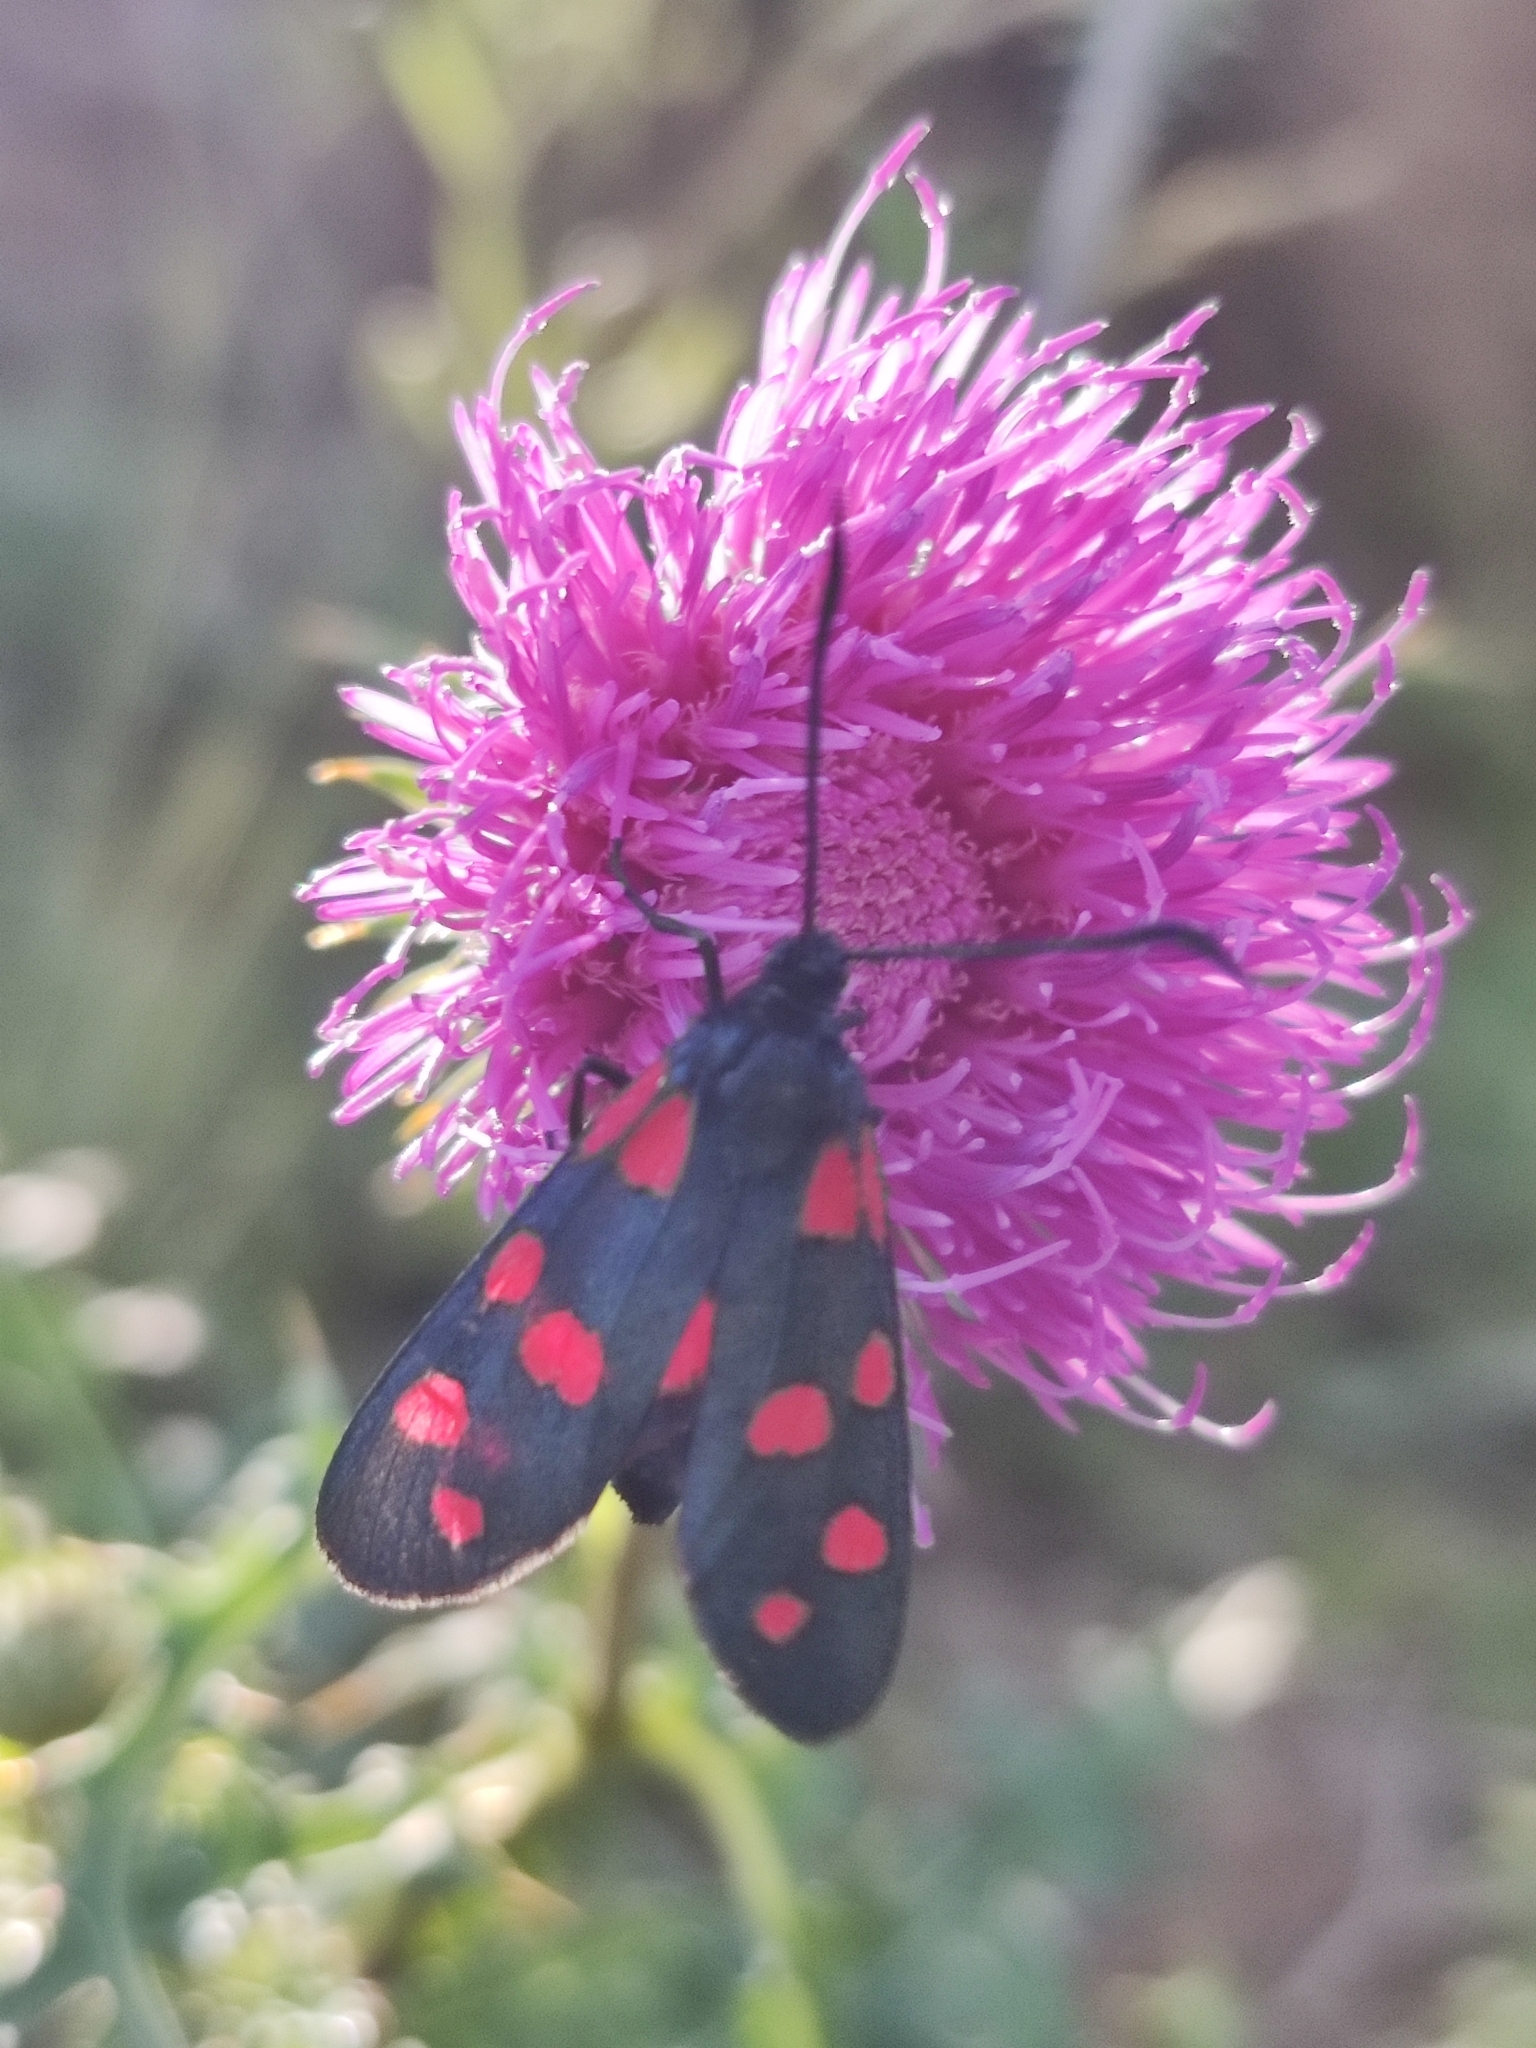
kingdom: Animalia
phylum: Arthropoda
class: Insecta
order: Lepidoptera
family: Zygaenidae
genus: Zygaena
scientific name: Zygaena transalpina
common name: Southern six spot burnet
